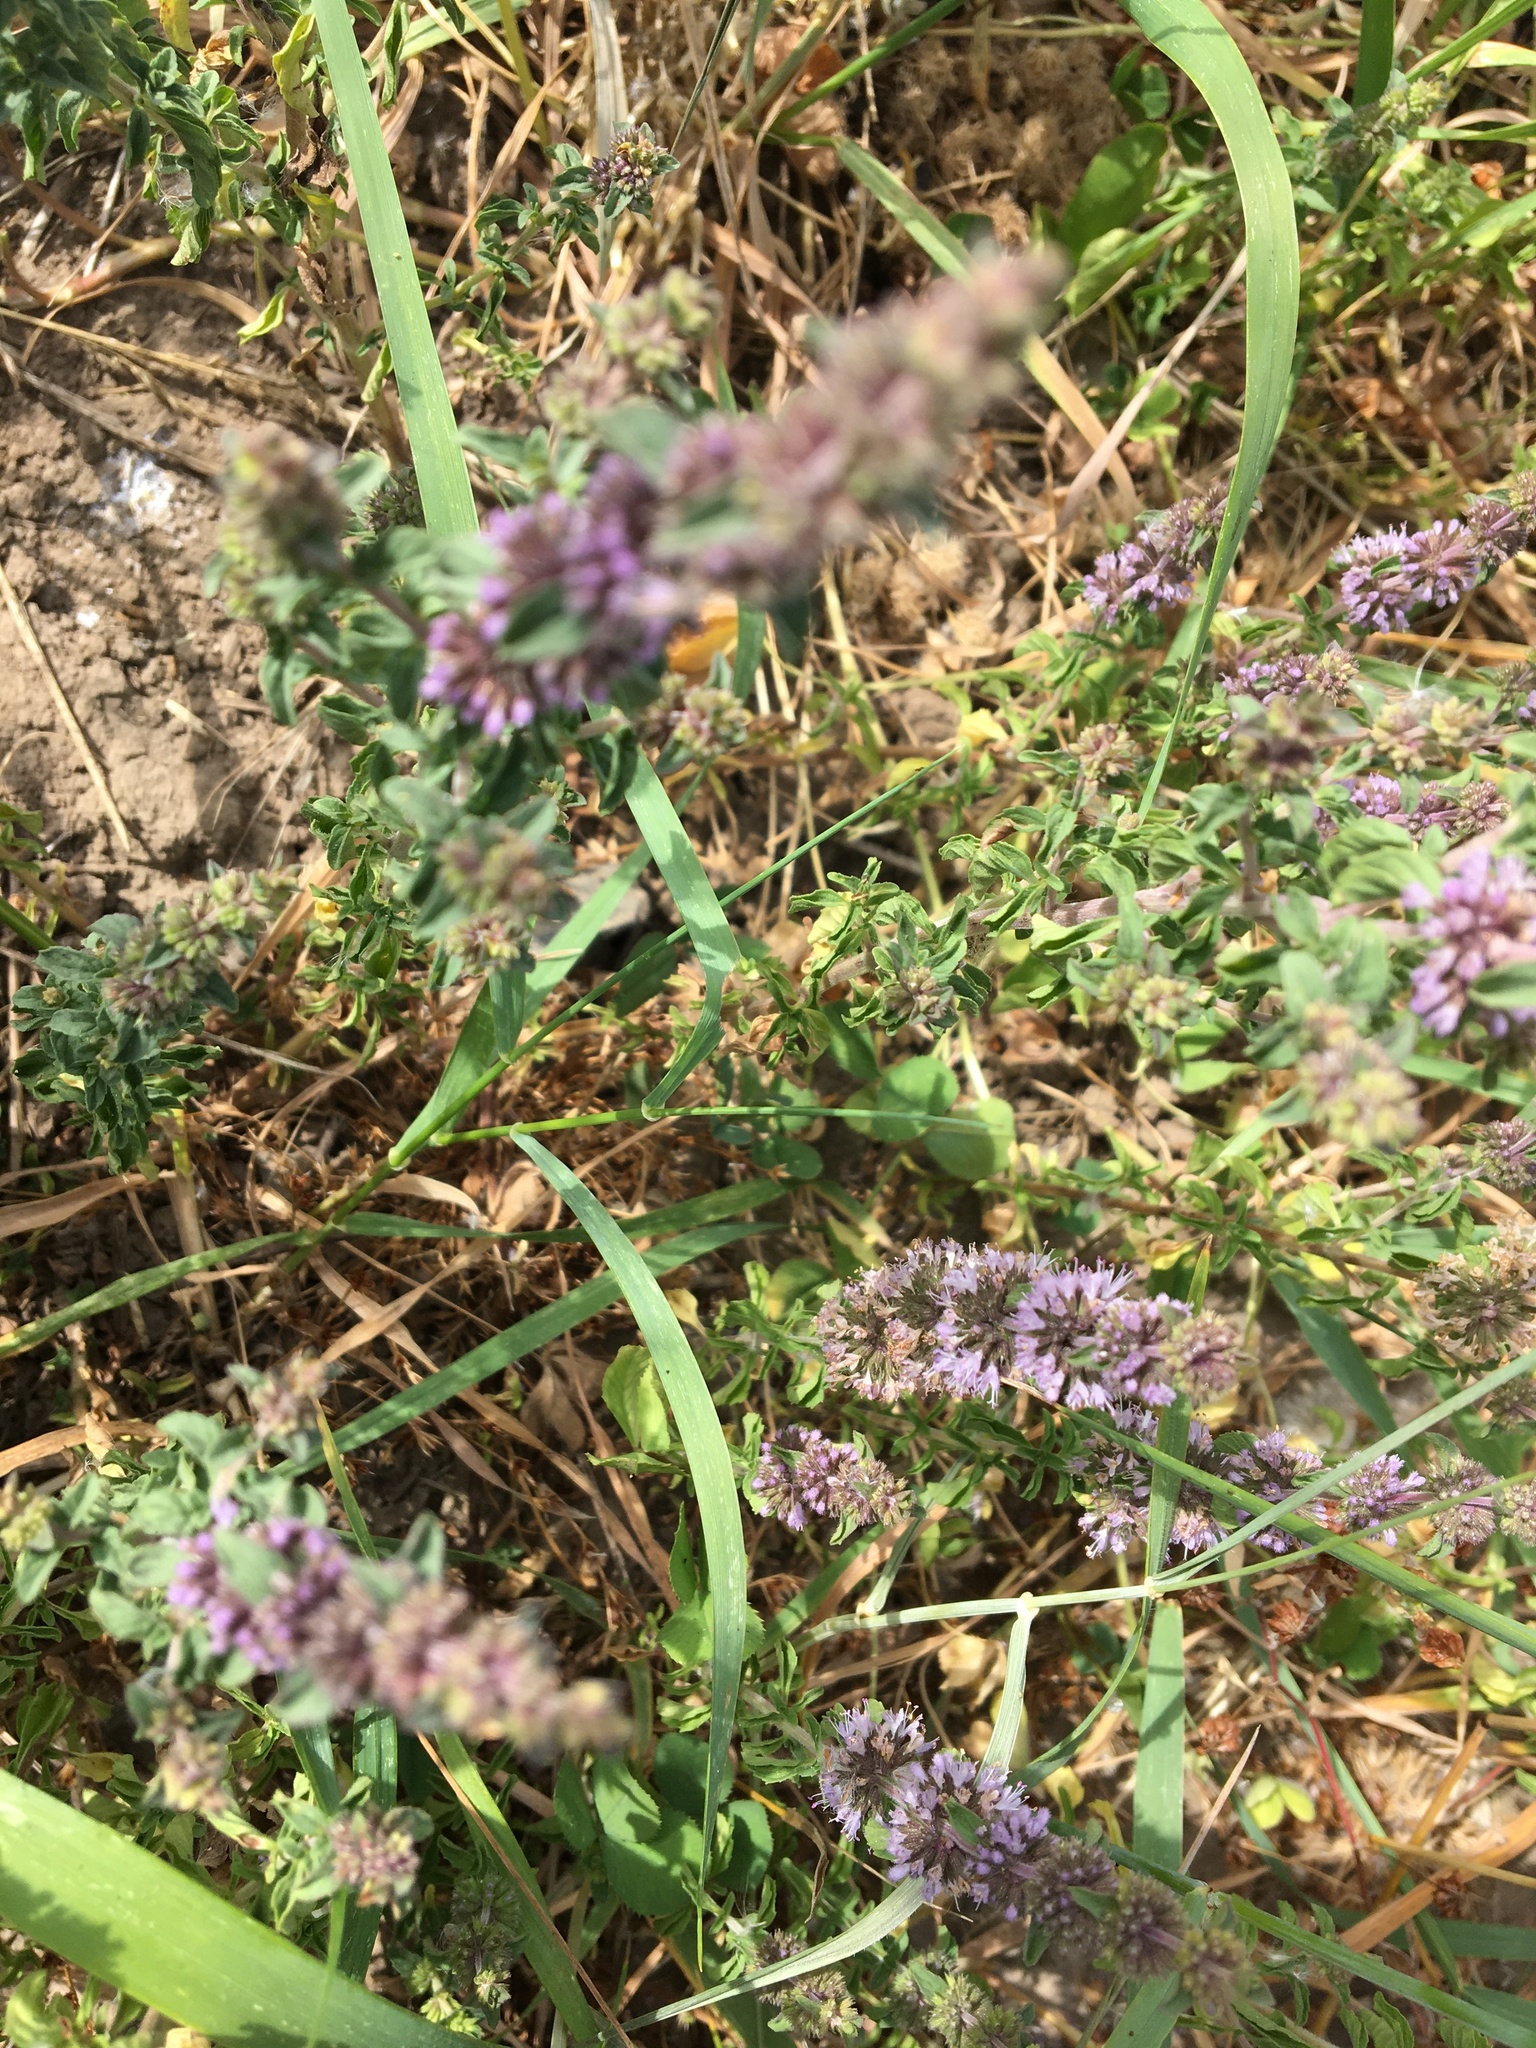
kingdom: Plantae
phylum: Tracheophyta
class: Magnoliopsida
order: Lamiales
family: Lamiaceae
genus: Mentha
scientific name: Mentha pulegium
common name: Pennyroyal
